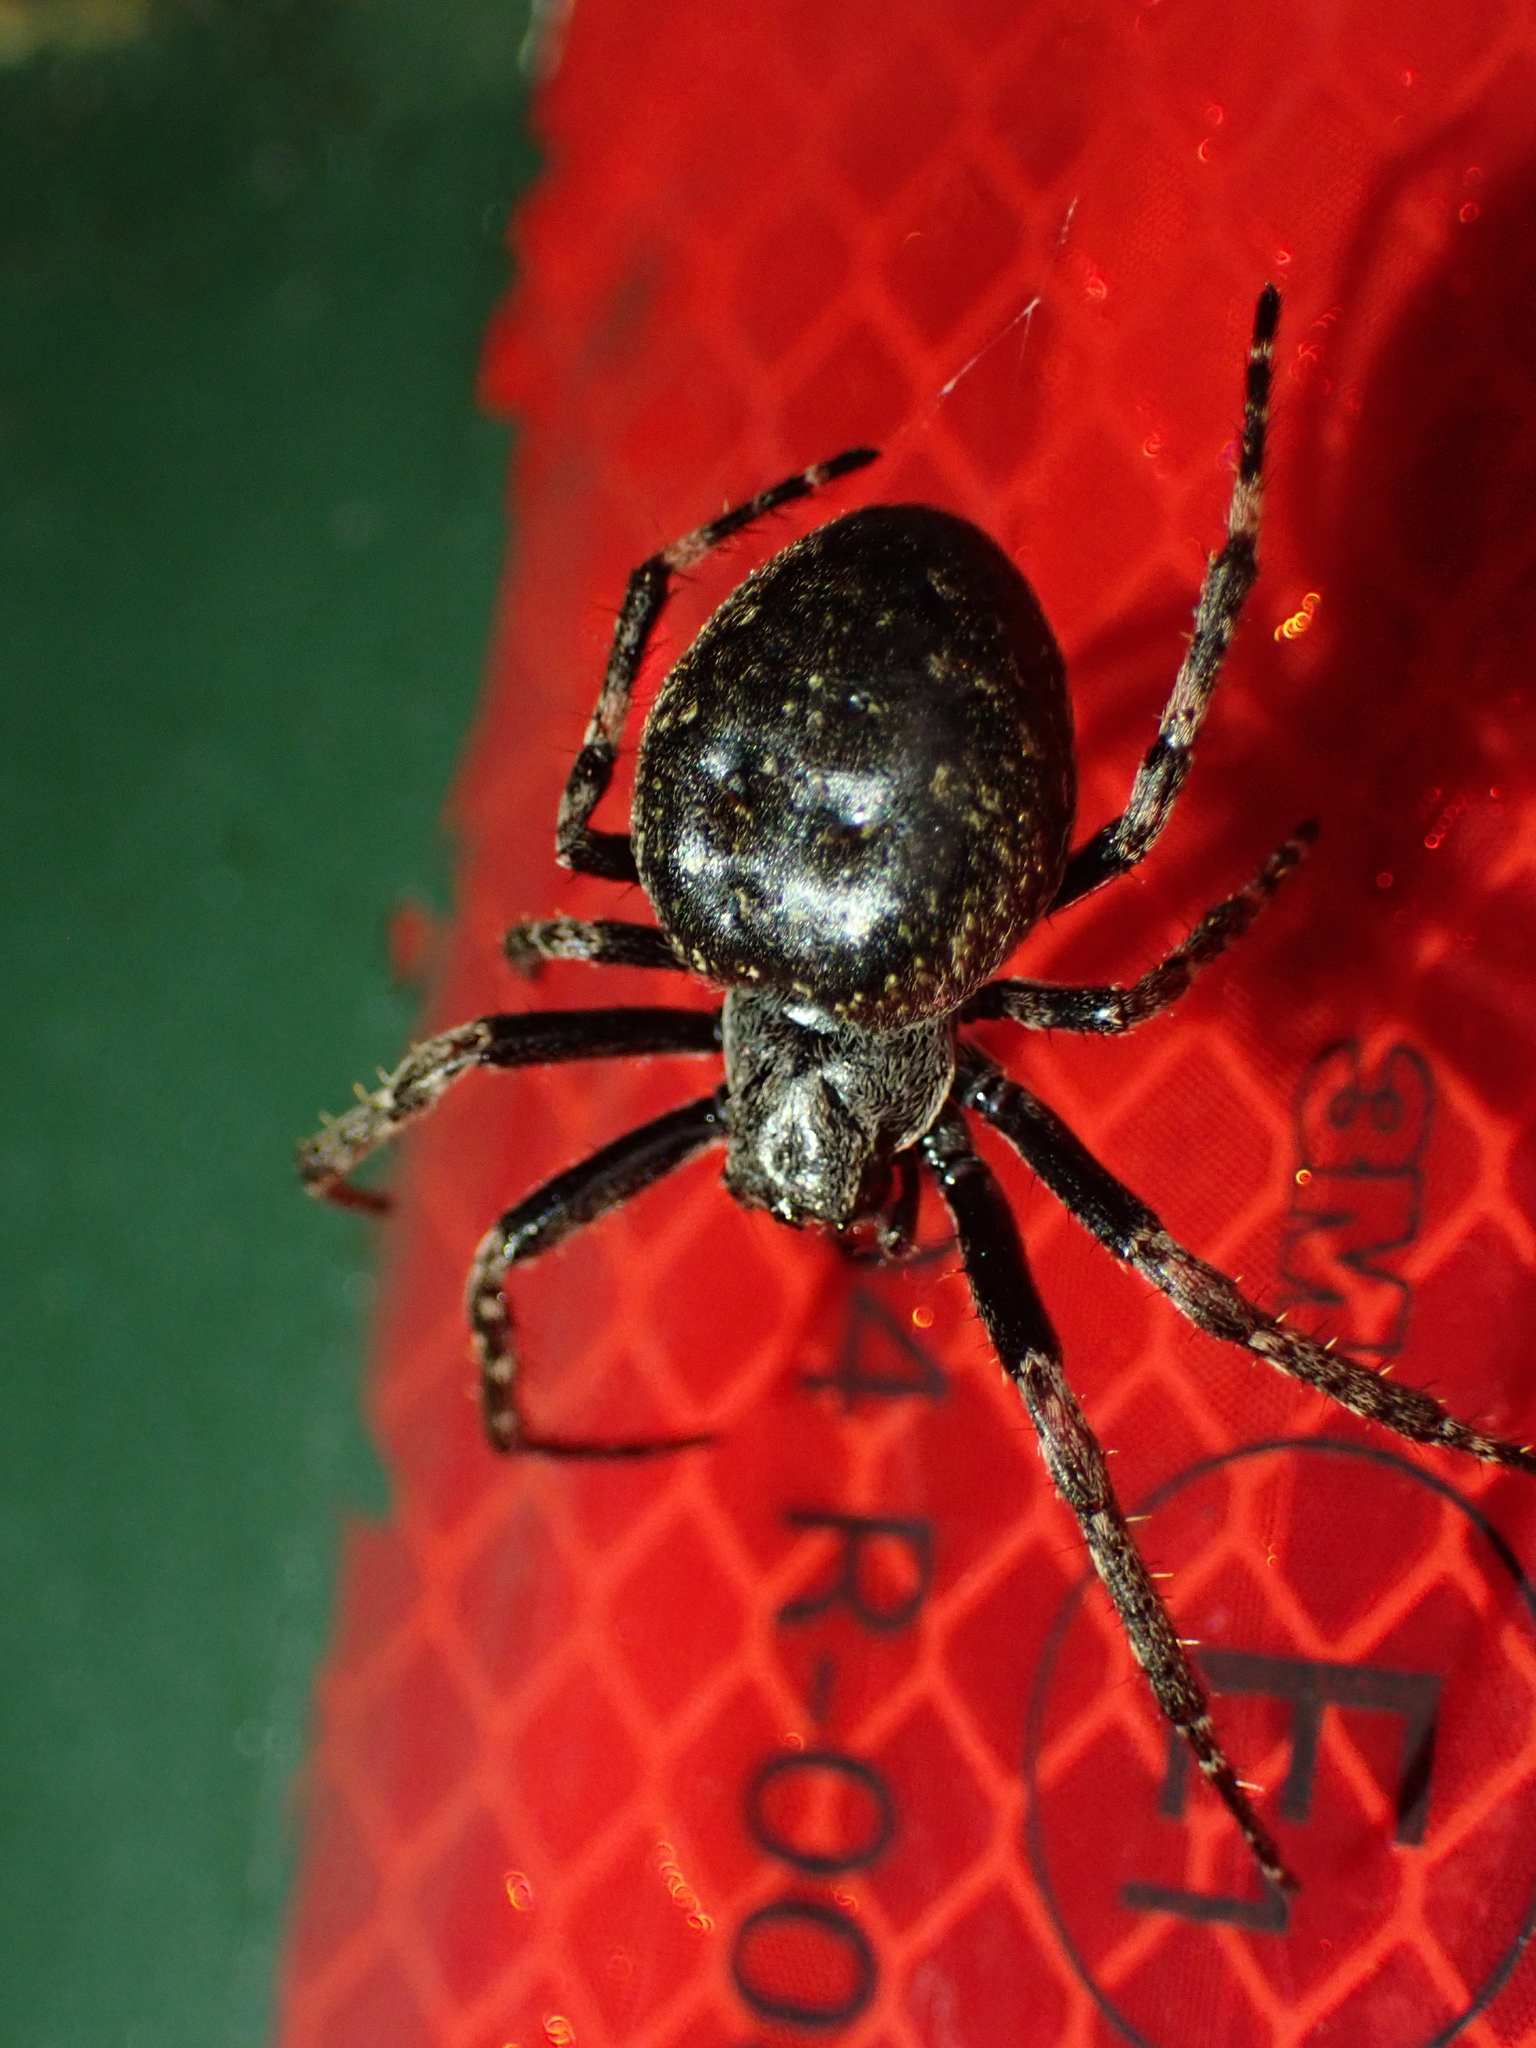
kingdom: Animalia
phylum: Arthropoda
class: Arachnida
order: Araneae
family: Araneidae
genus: Nuctenea
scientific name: Nuctenea umbratica
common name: Toad spider
